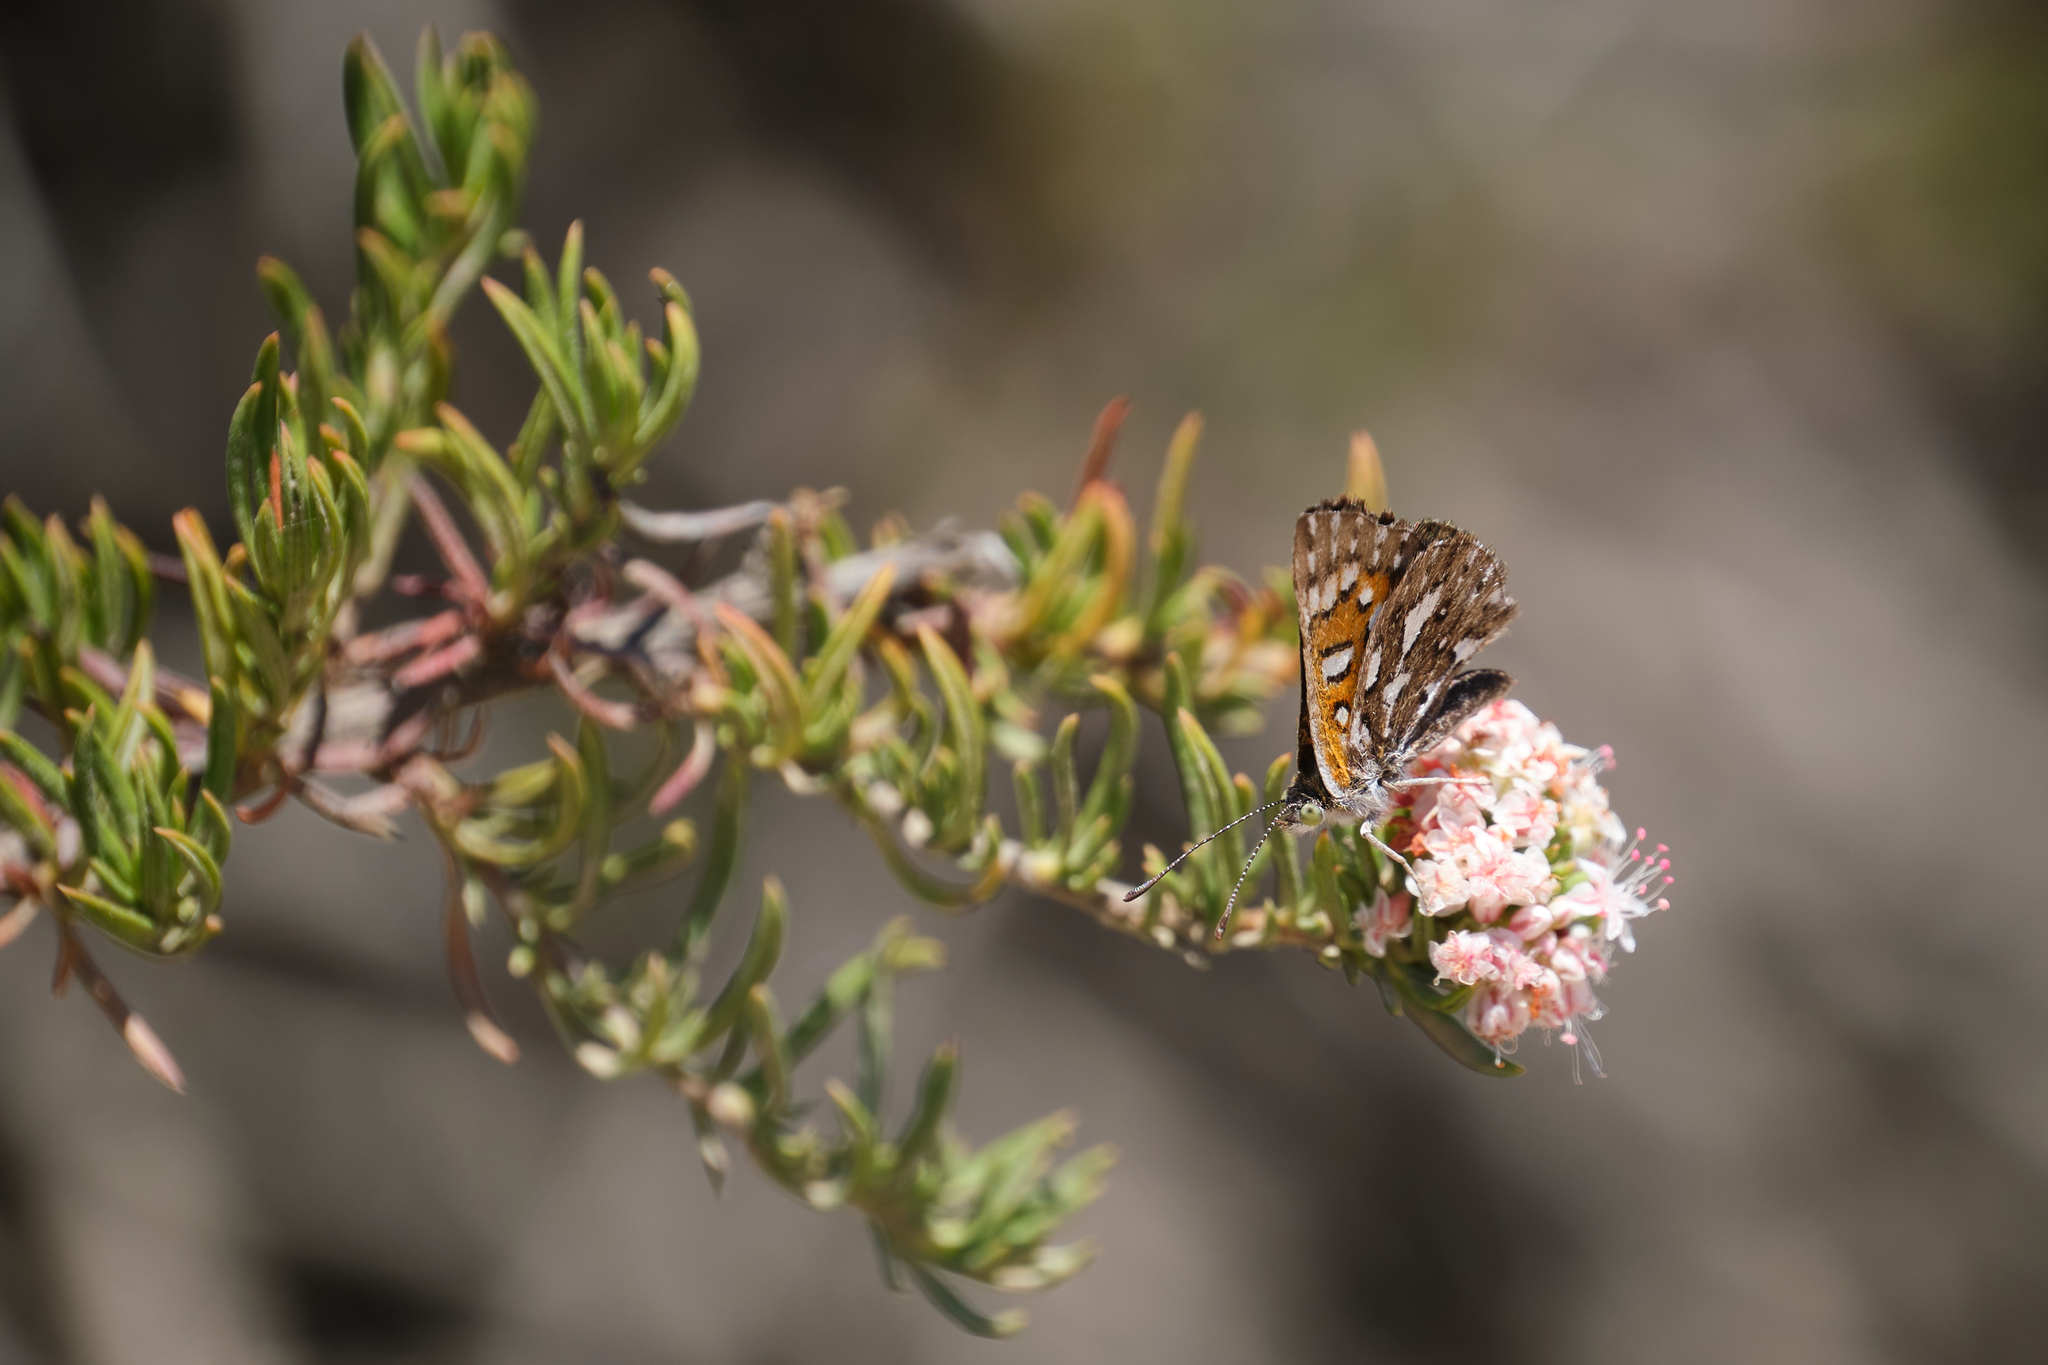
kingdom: Animalia
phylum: Arthropoda
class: Insecta
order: Lepidoptera
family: Riodinidae
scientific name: Riodinidae
